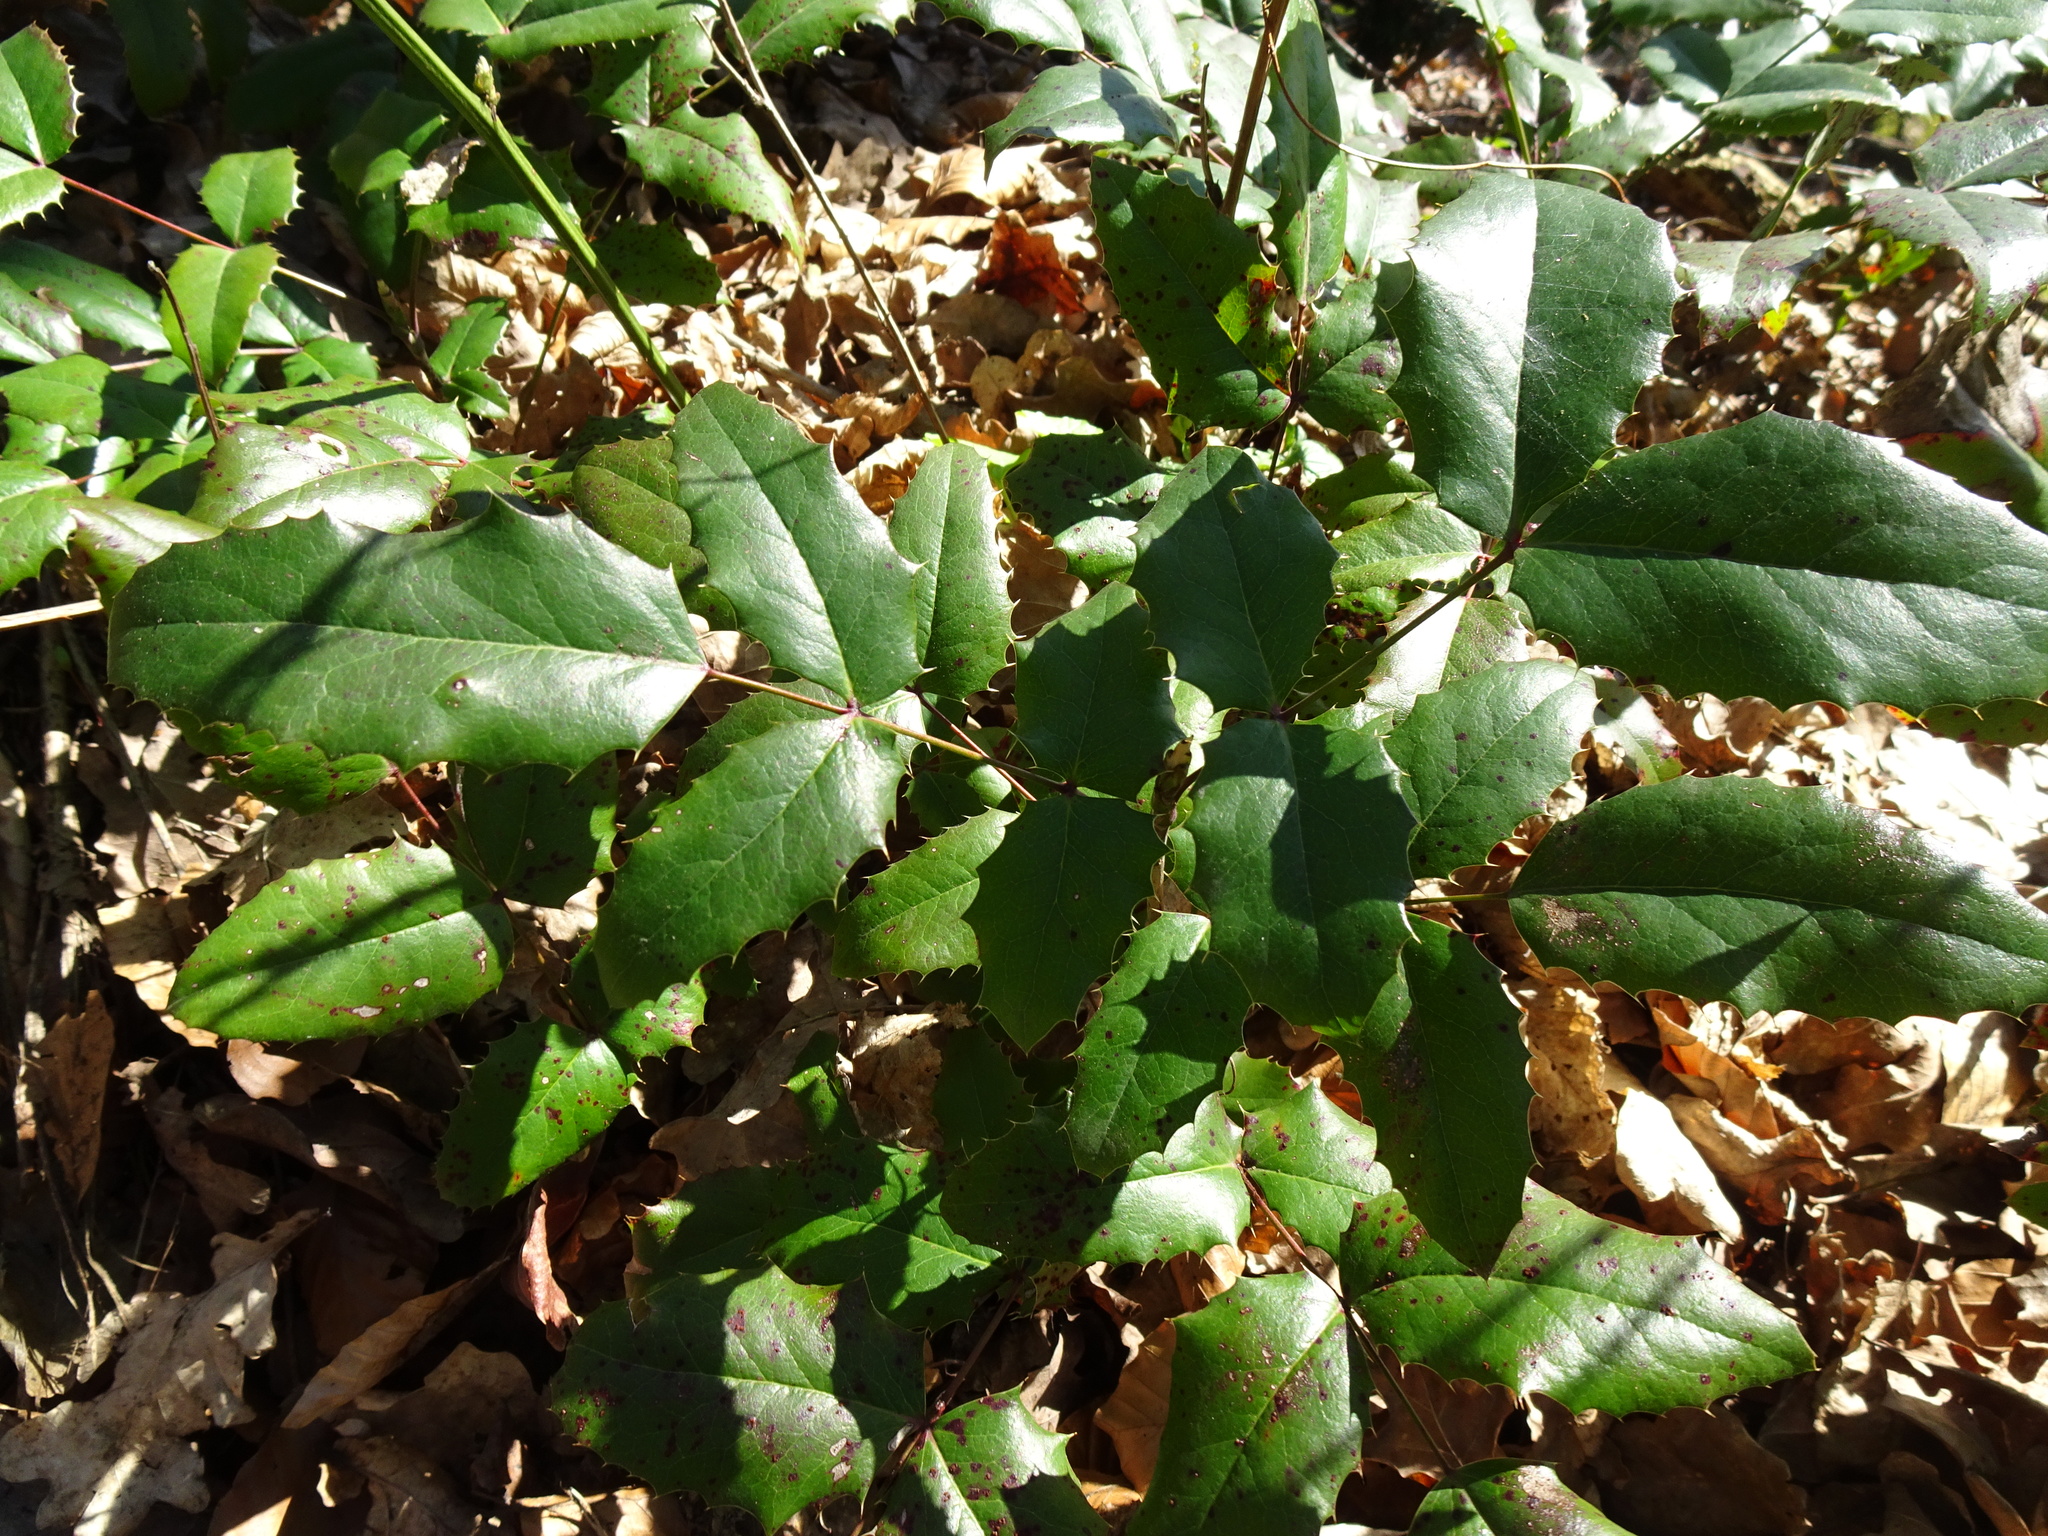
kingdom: Plantae
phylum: Tracheophyta
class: Magnoliopsida
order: Ranunculales
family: Berberidaceae
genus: Mahonia
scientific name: Mahonia aquifolium
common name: Oregon-grape
